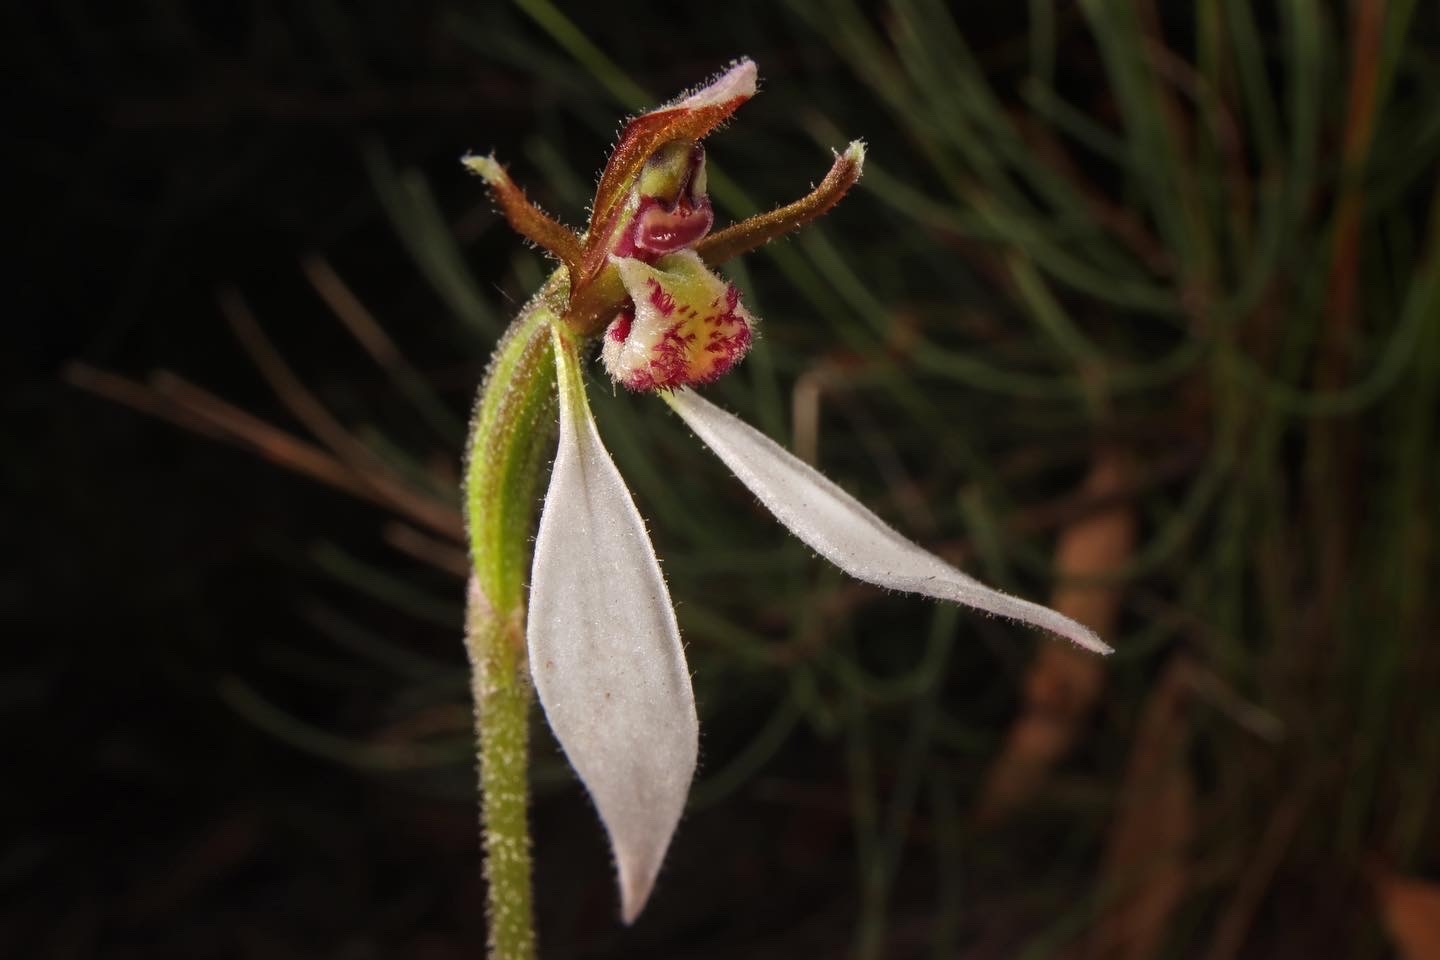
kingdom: Plantae
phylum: Tracheophyta
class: Liliopsida
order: Asparagales
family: Orchidaceae
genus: Eriochilus
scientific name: Eriochilus collinus
